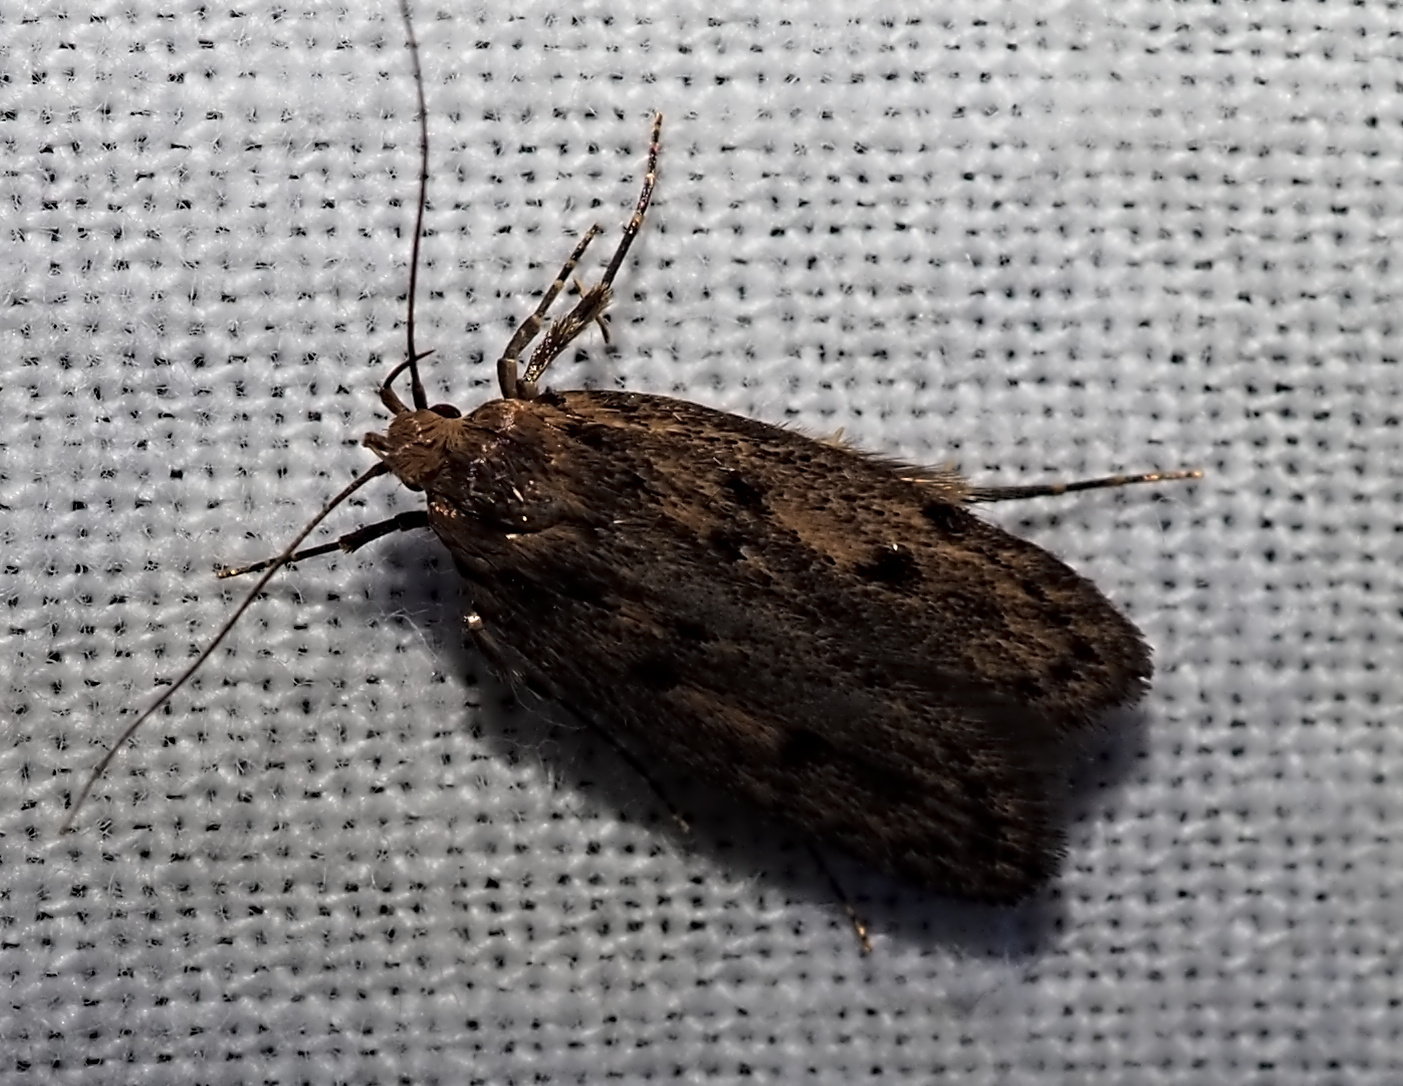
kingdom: Animalia
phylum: Arthropoda
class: Insecta
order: Lepidoptera
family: Oecophoridae
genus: Hofmannophila
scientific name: Hofmannophila pseudospretella
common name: Brown house moth
